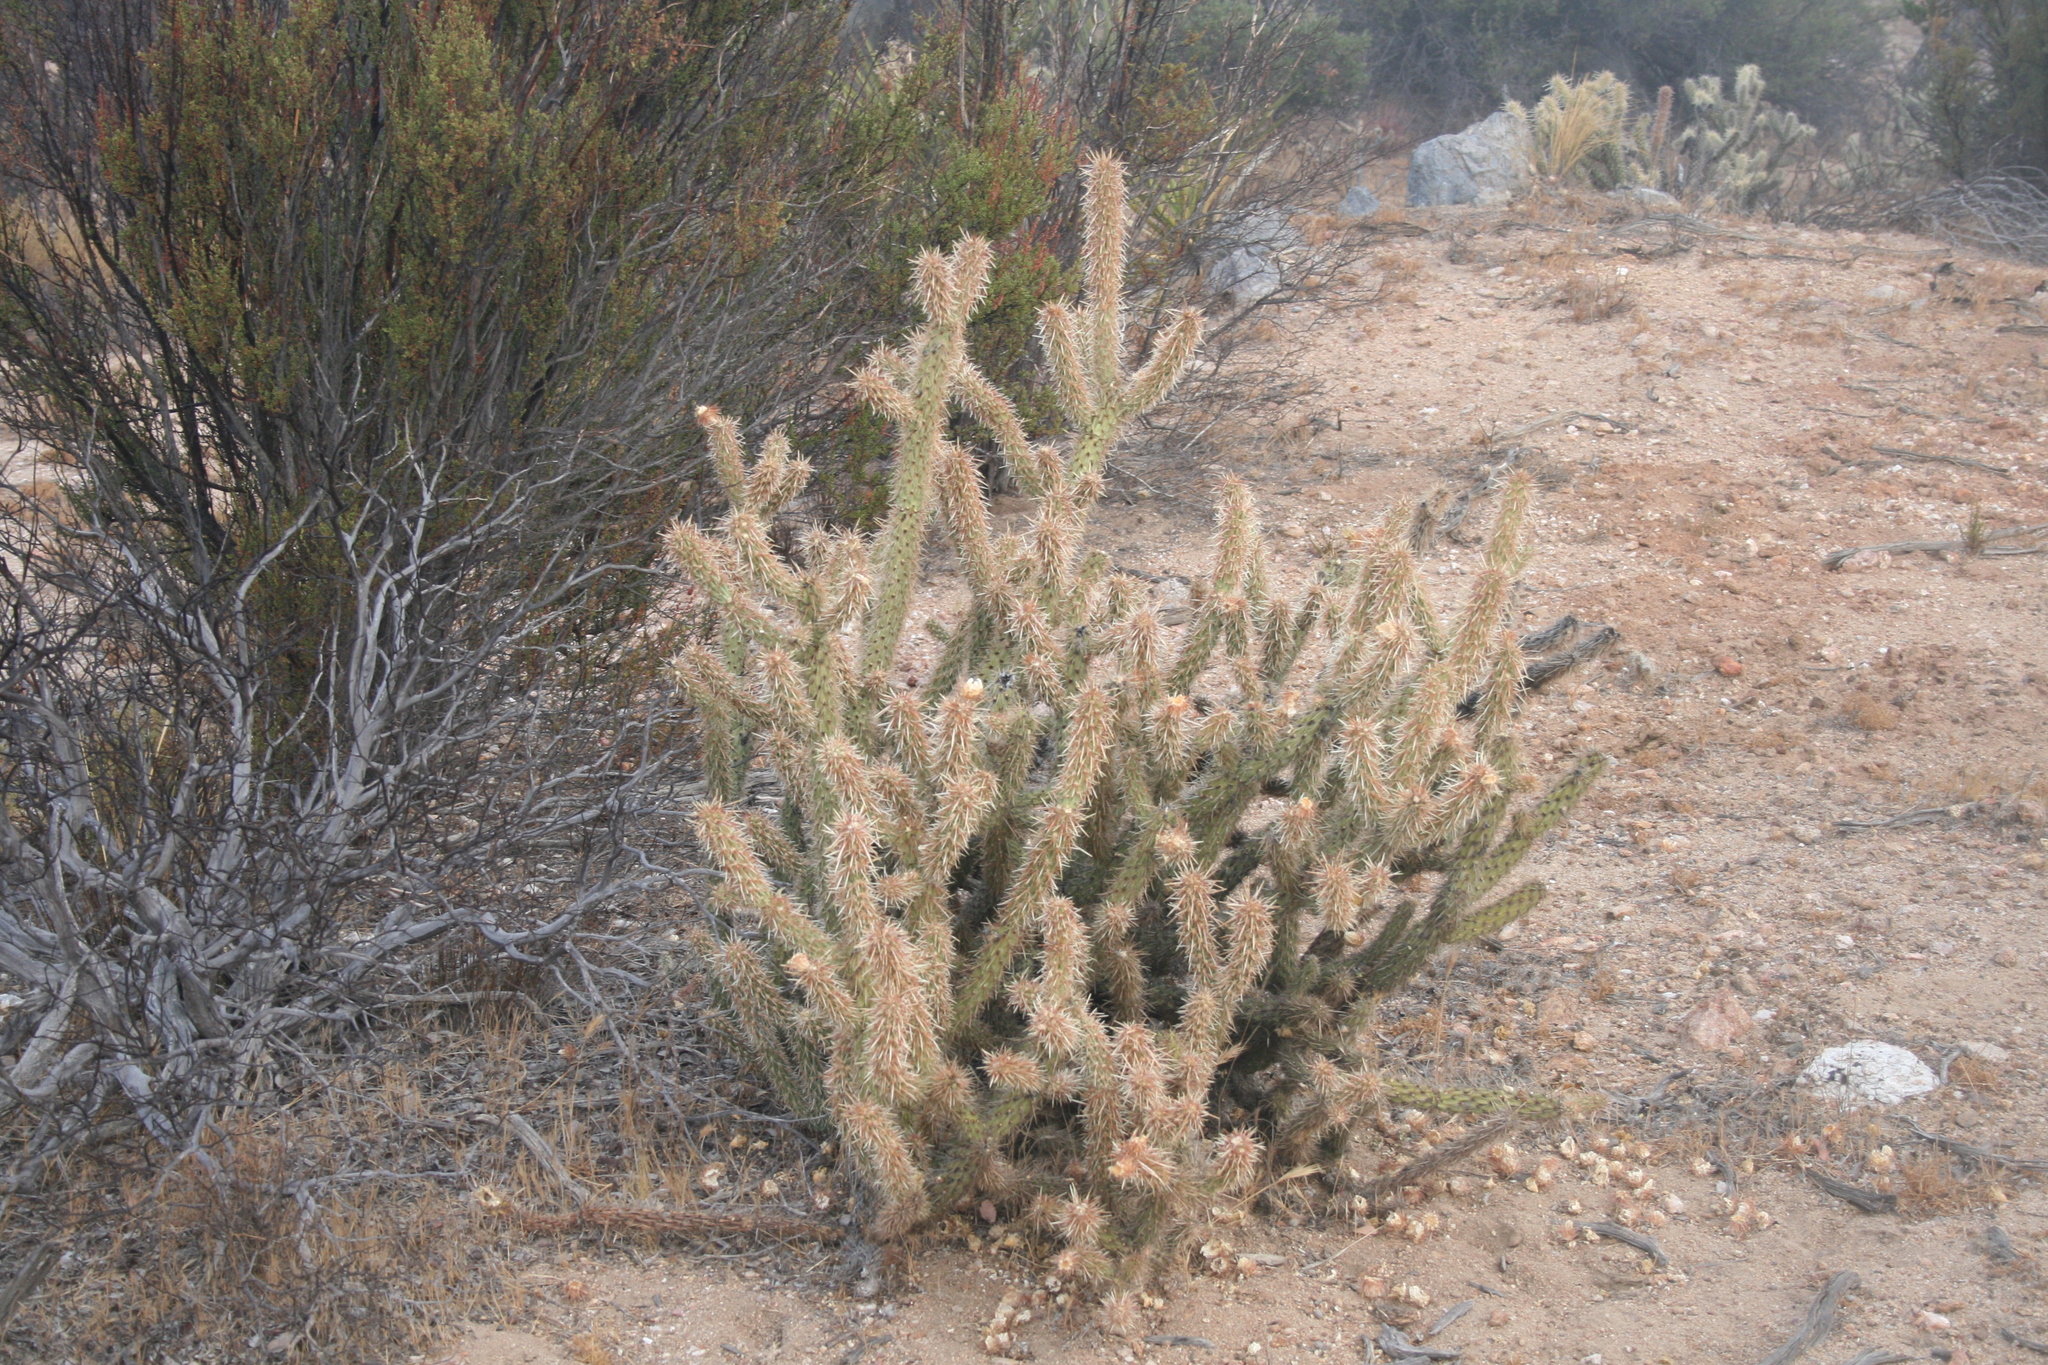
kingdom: Plantae
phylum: Tracheophyta
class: Magnoliopsida
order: Caryophyllales
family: Cactaceae
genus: Cylindropuntia
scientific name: Cylindropuntia wolfii
